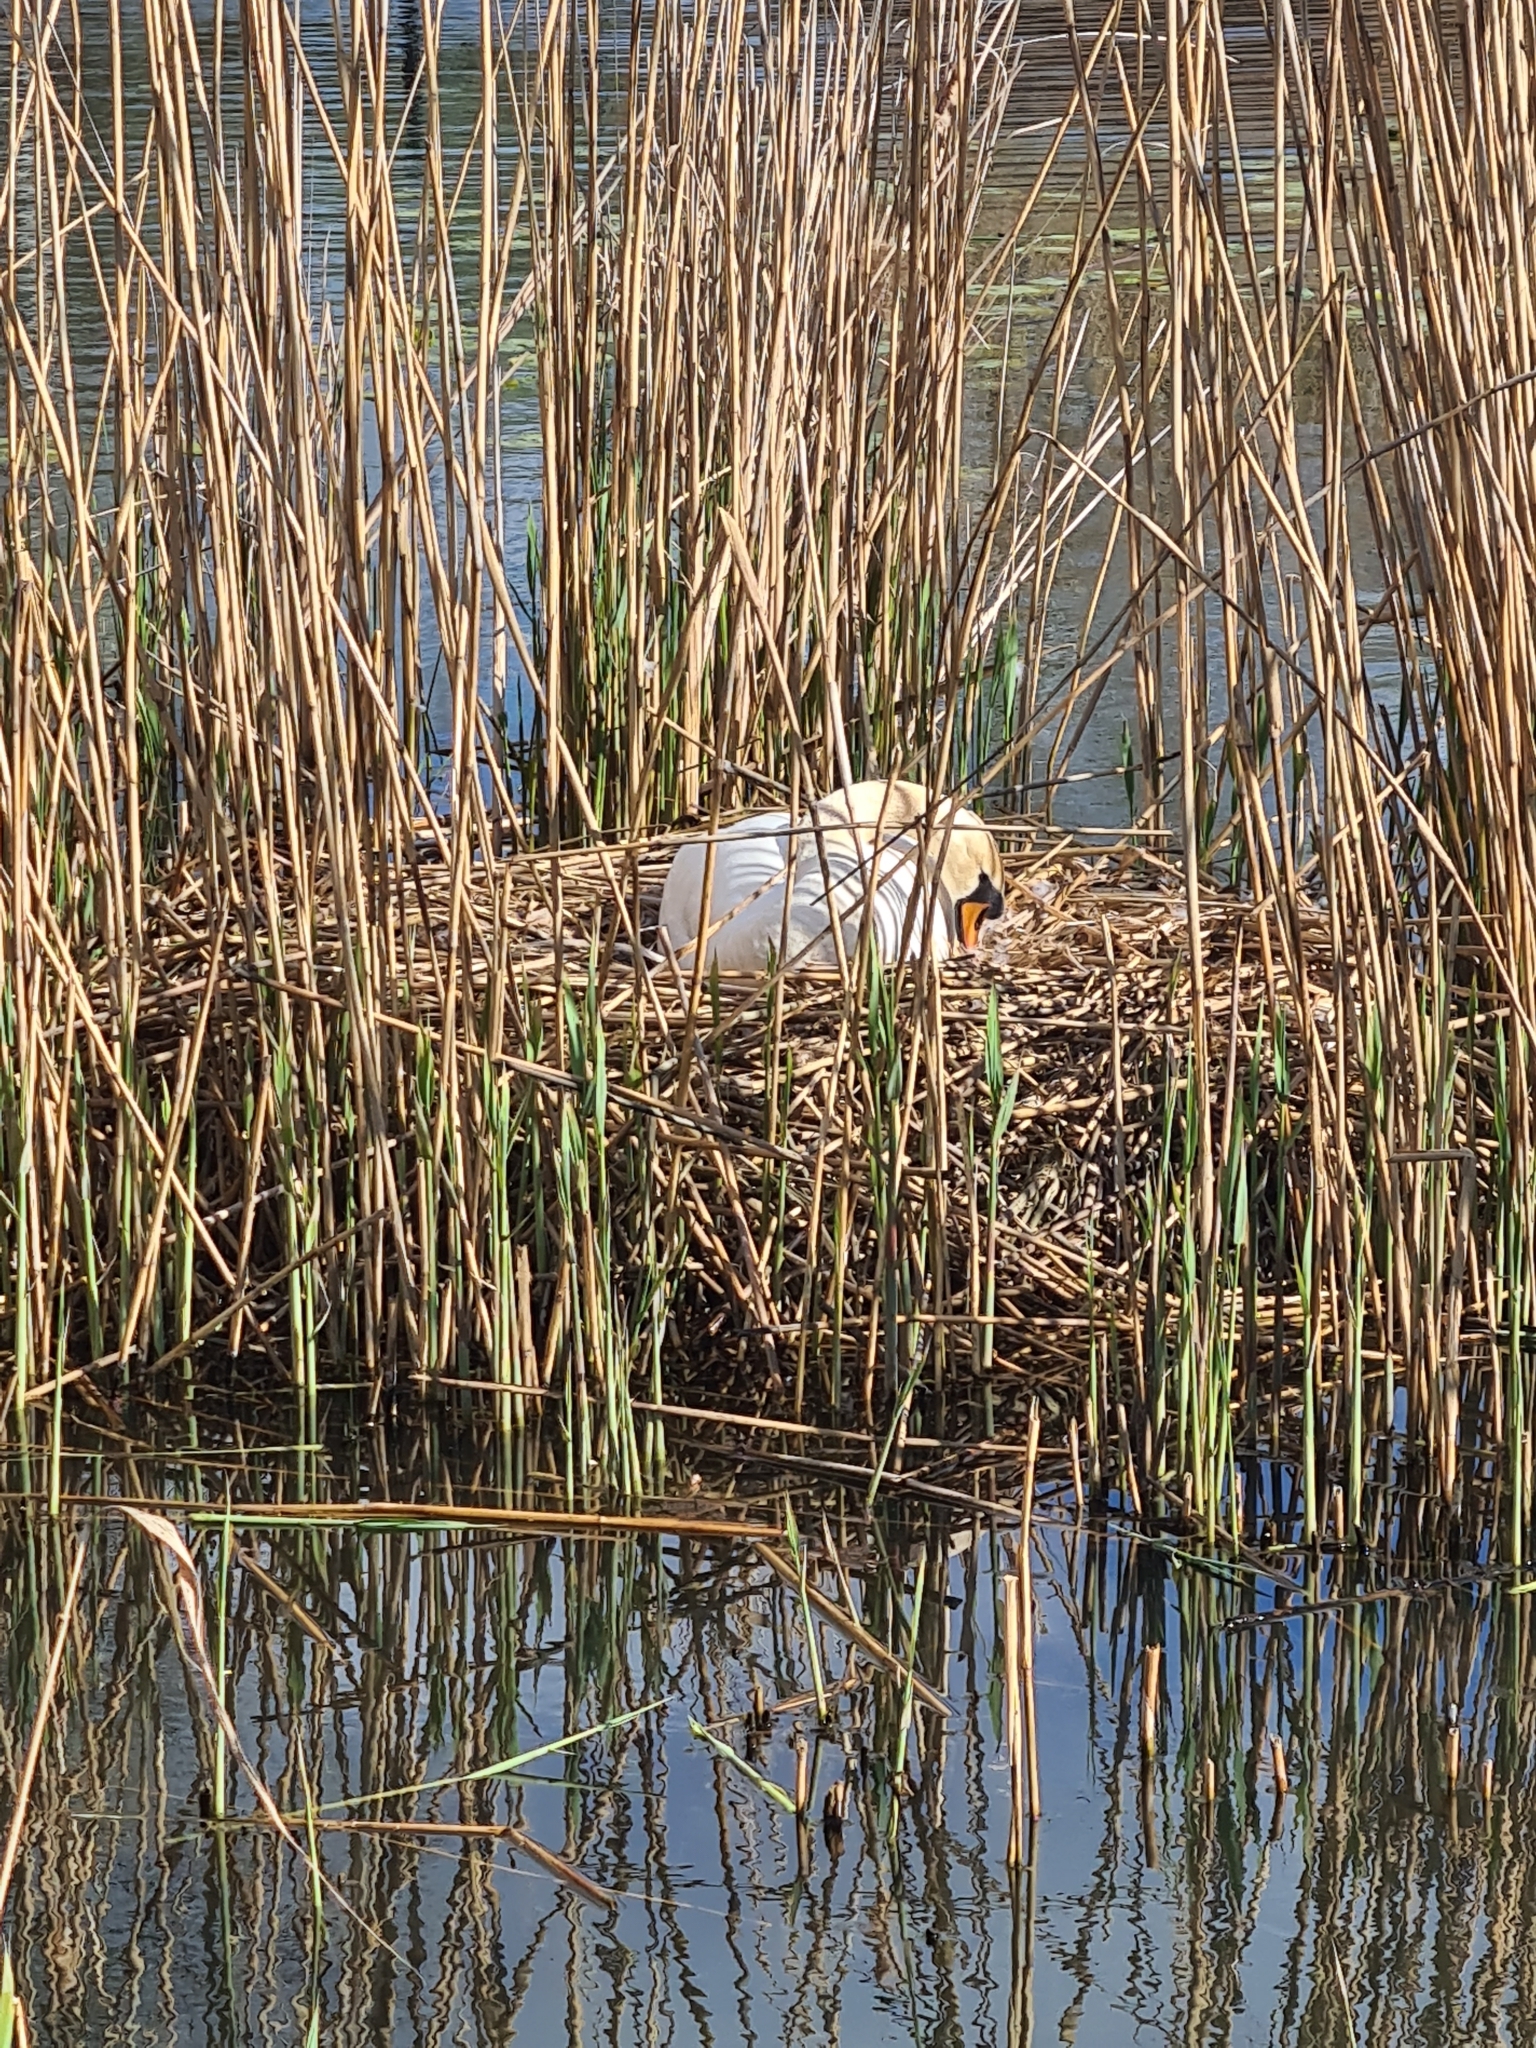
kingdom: Animalia
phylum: Chordata
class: Aves
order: Anseriformes
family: Anatidae
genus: Cygnus
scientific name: Cygnus olor
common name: Mute swan
